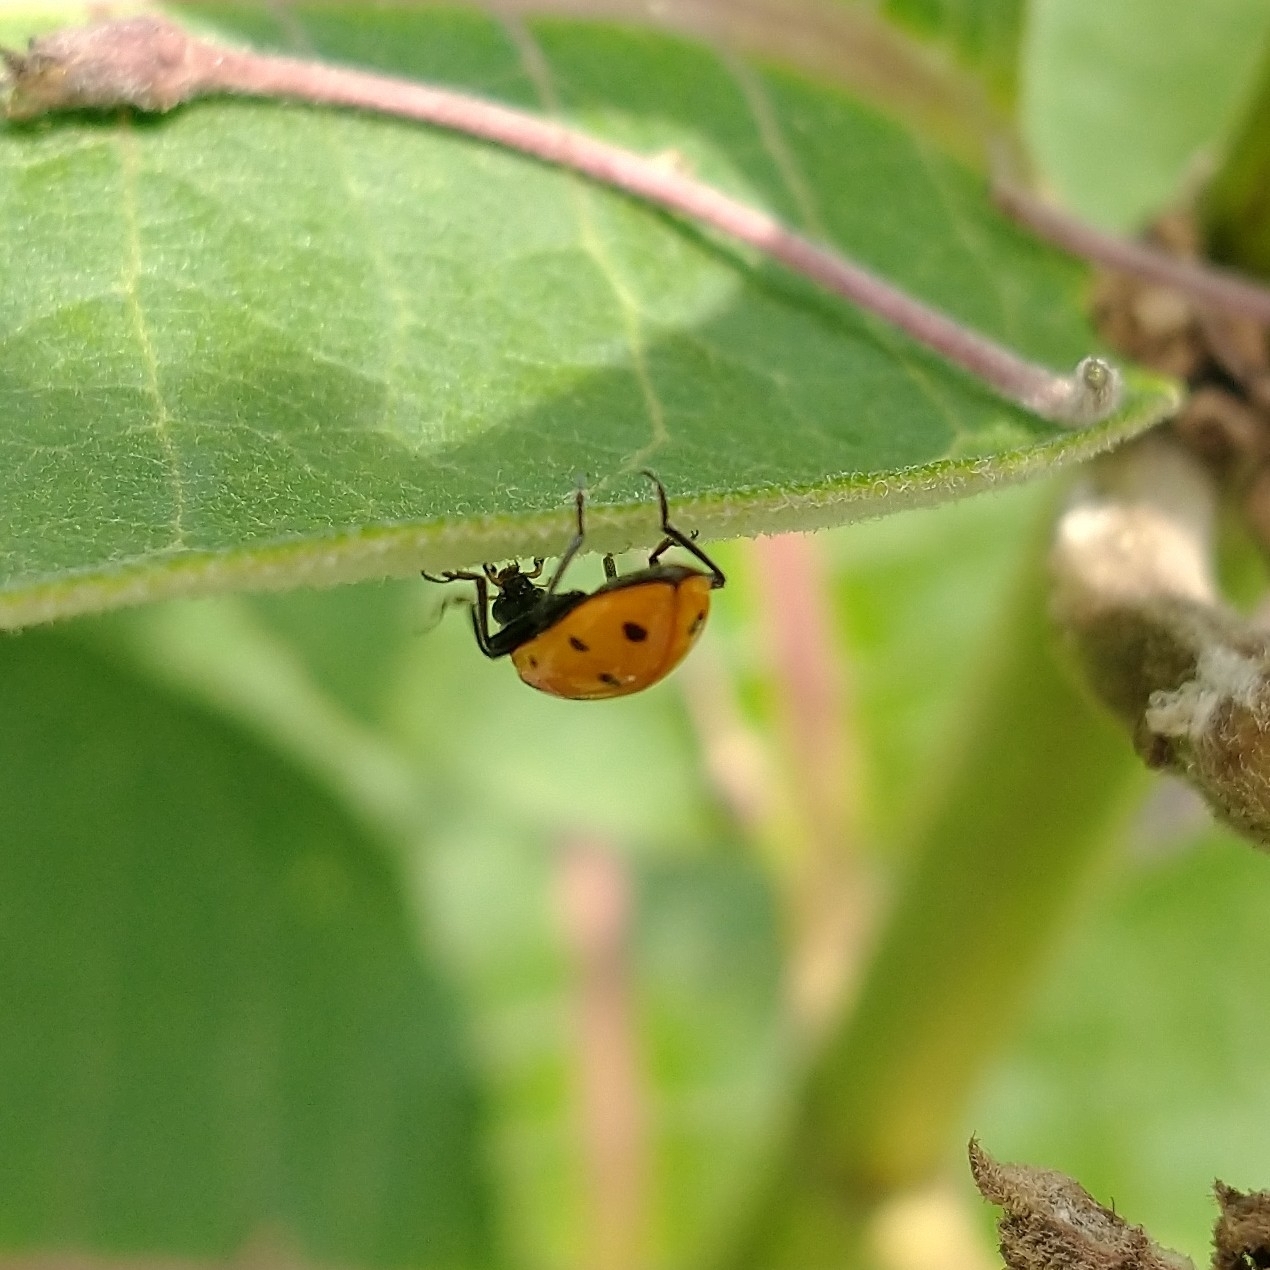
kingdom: Animalia
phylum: Arthropoda
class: Insecta
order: Coleoptera
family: Coccinellidae
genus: Hippodamia
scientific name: Hippodamia convergens
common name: Convergent lady beetle
